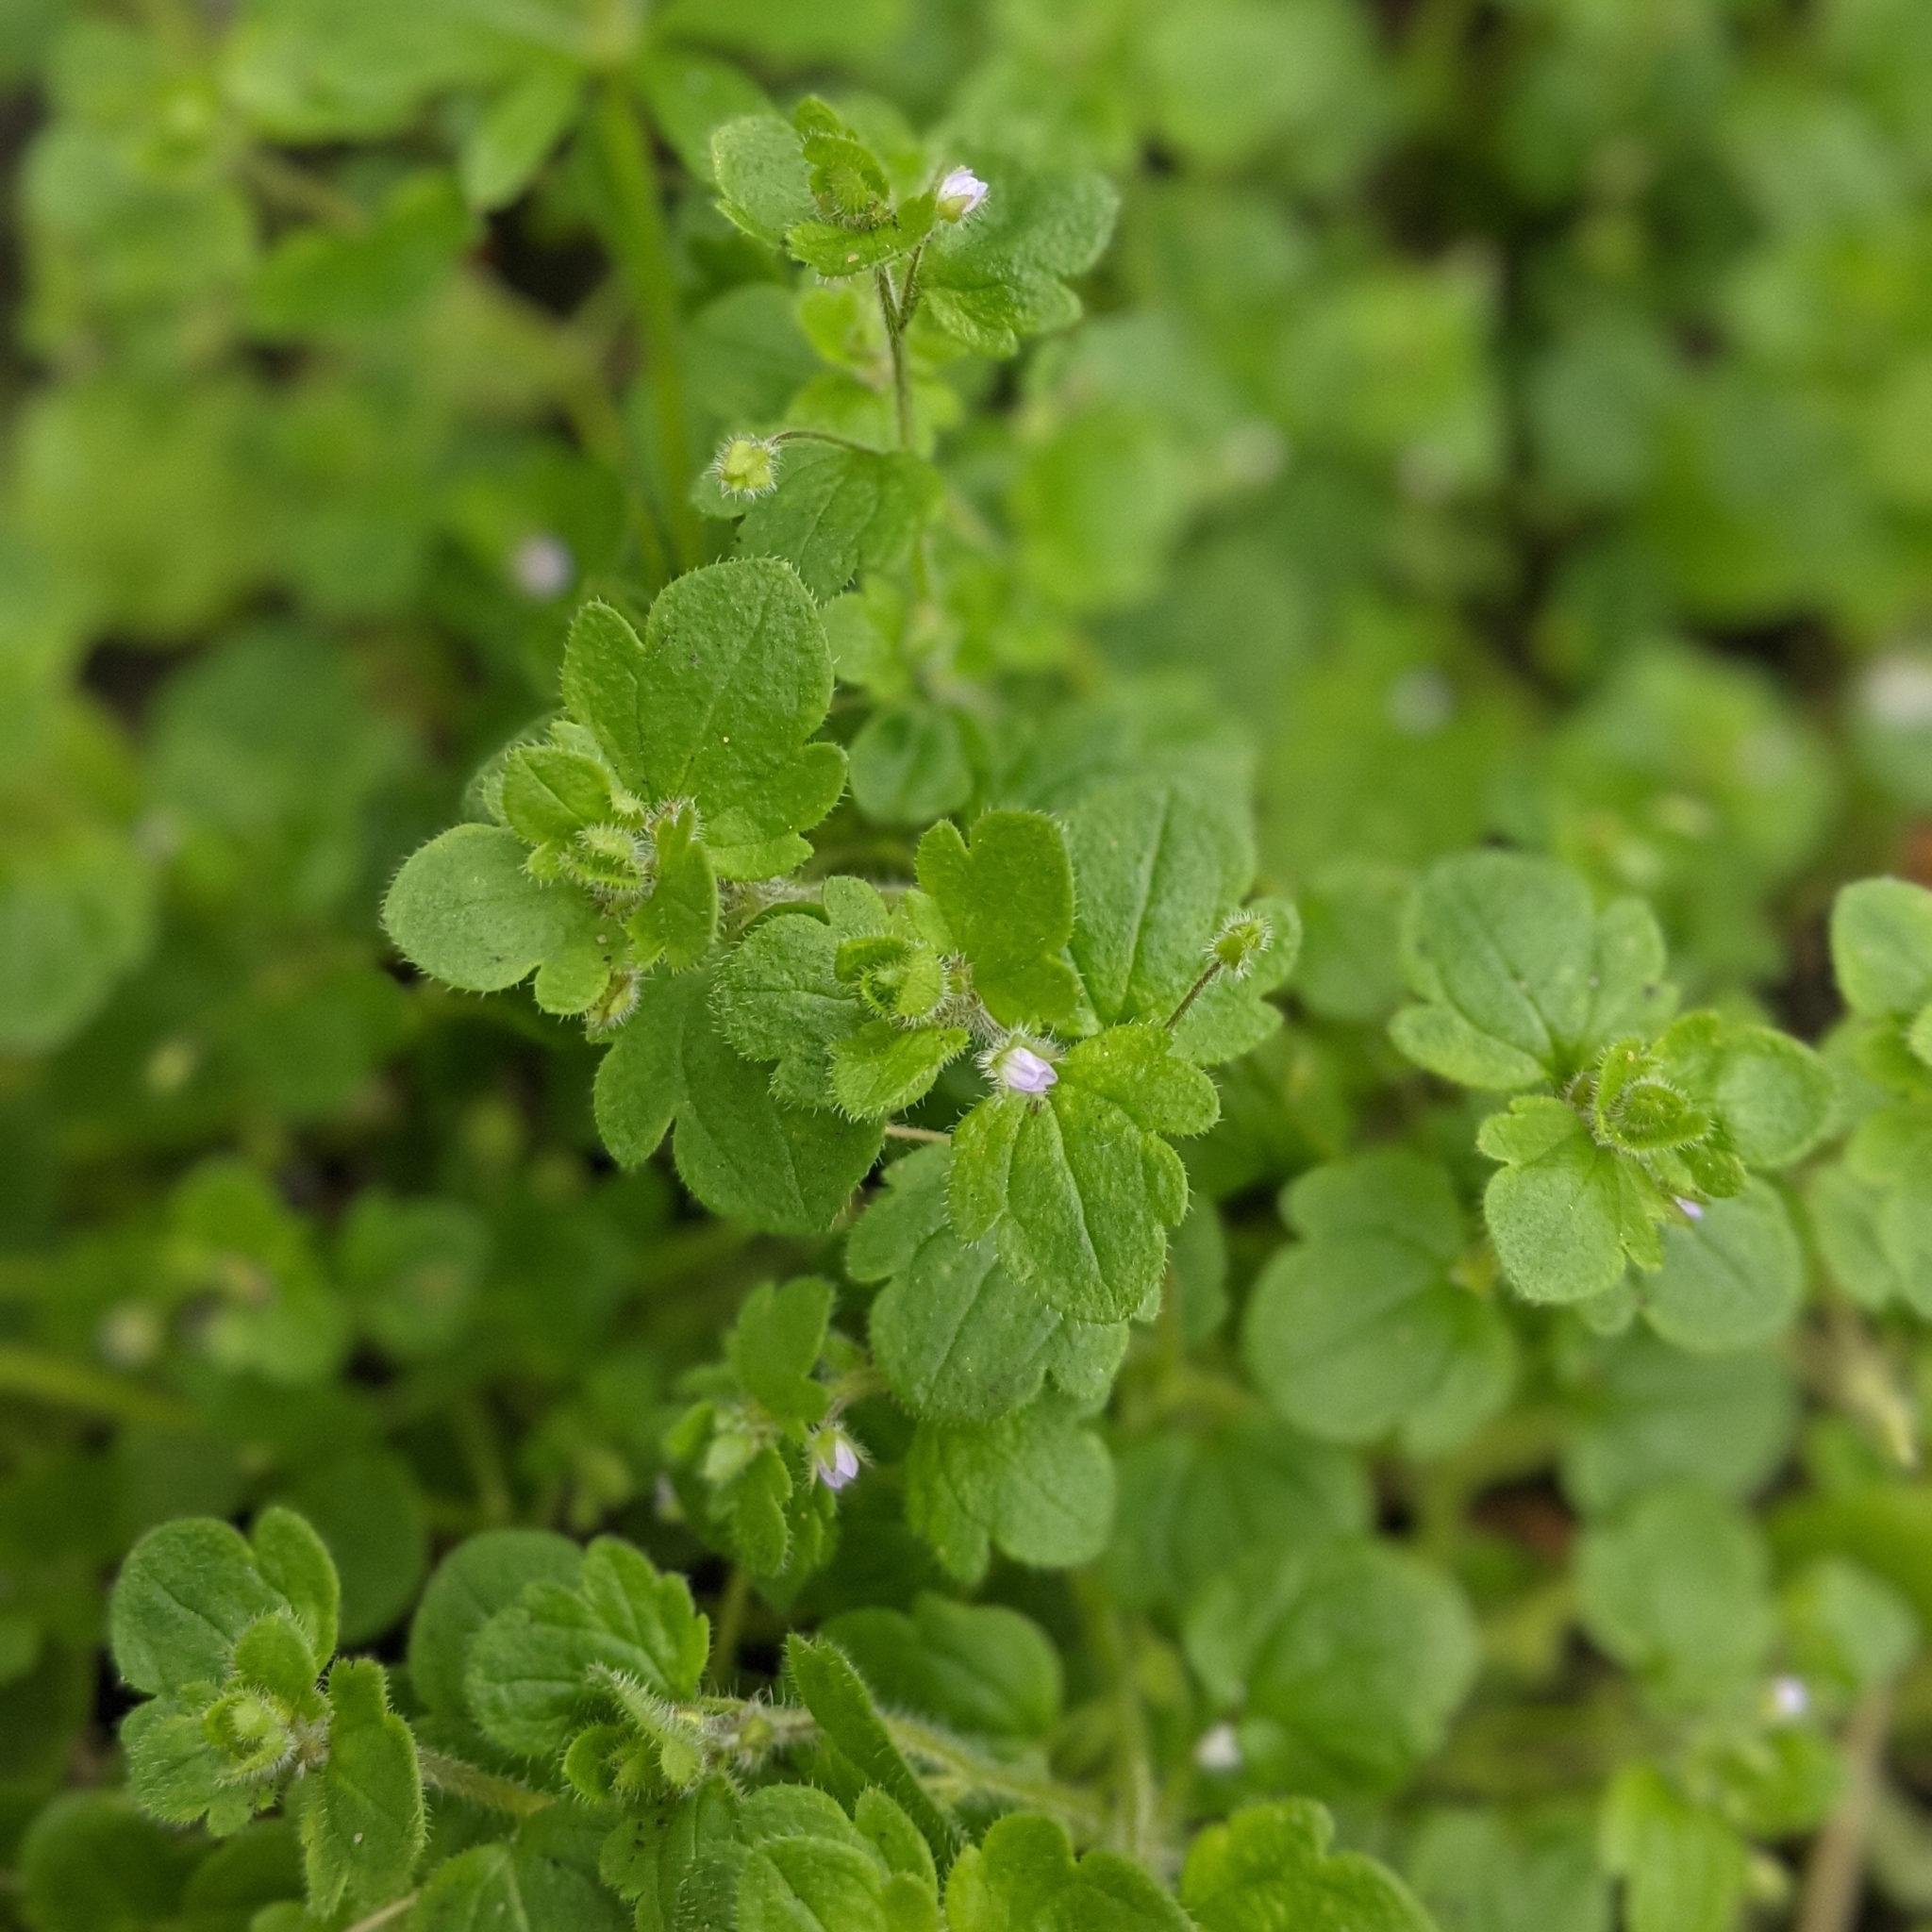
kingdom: Plantae
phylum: Tracheophyta
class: Magnoliopsida
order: Lamiales
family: Plantaginaceae
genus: Veronica
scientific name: Veronica sublobata
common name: False ivy-leaved speedwell
